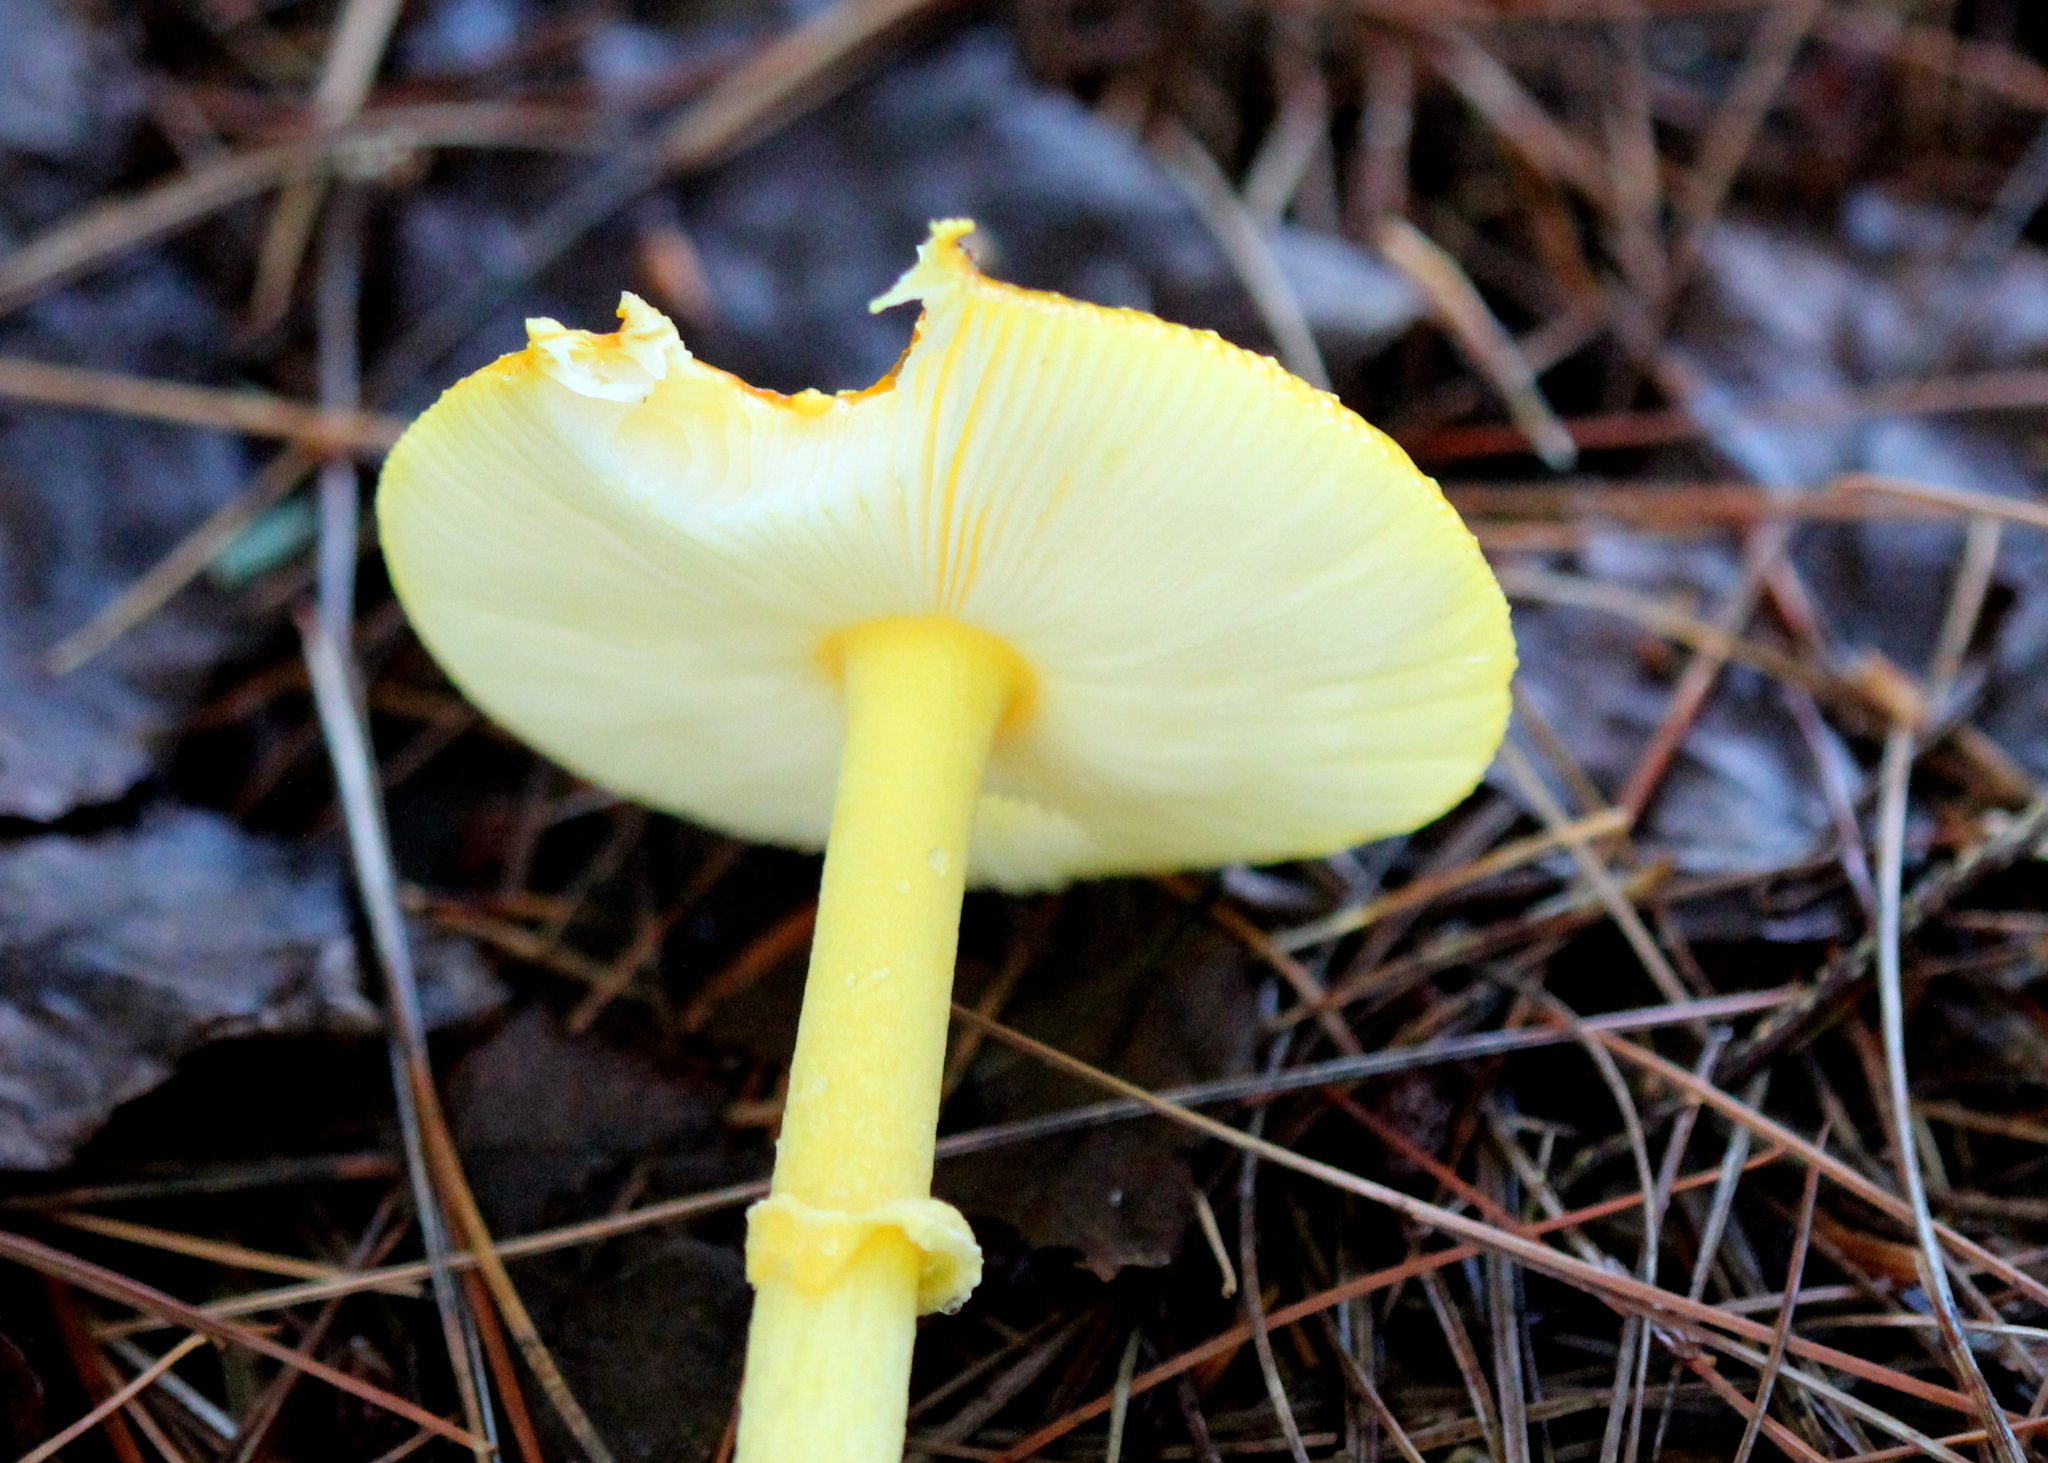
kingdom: Fungi
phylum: Basidiomycota
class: Agaricomycetes
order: Agaricales
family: Amanitaceae
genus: Amanita
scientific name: Amanita frostiana
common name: Frost's amanita
